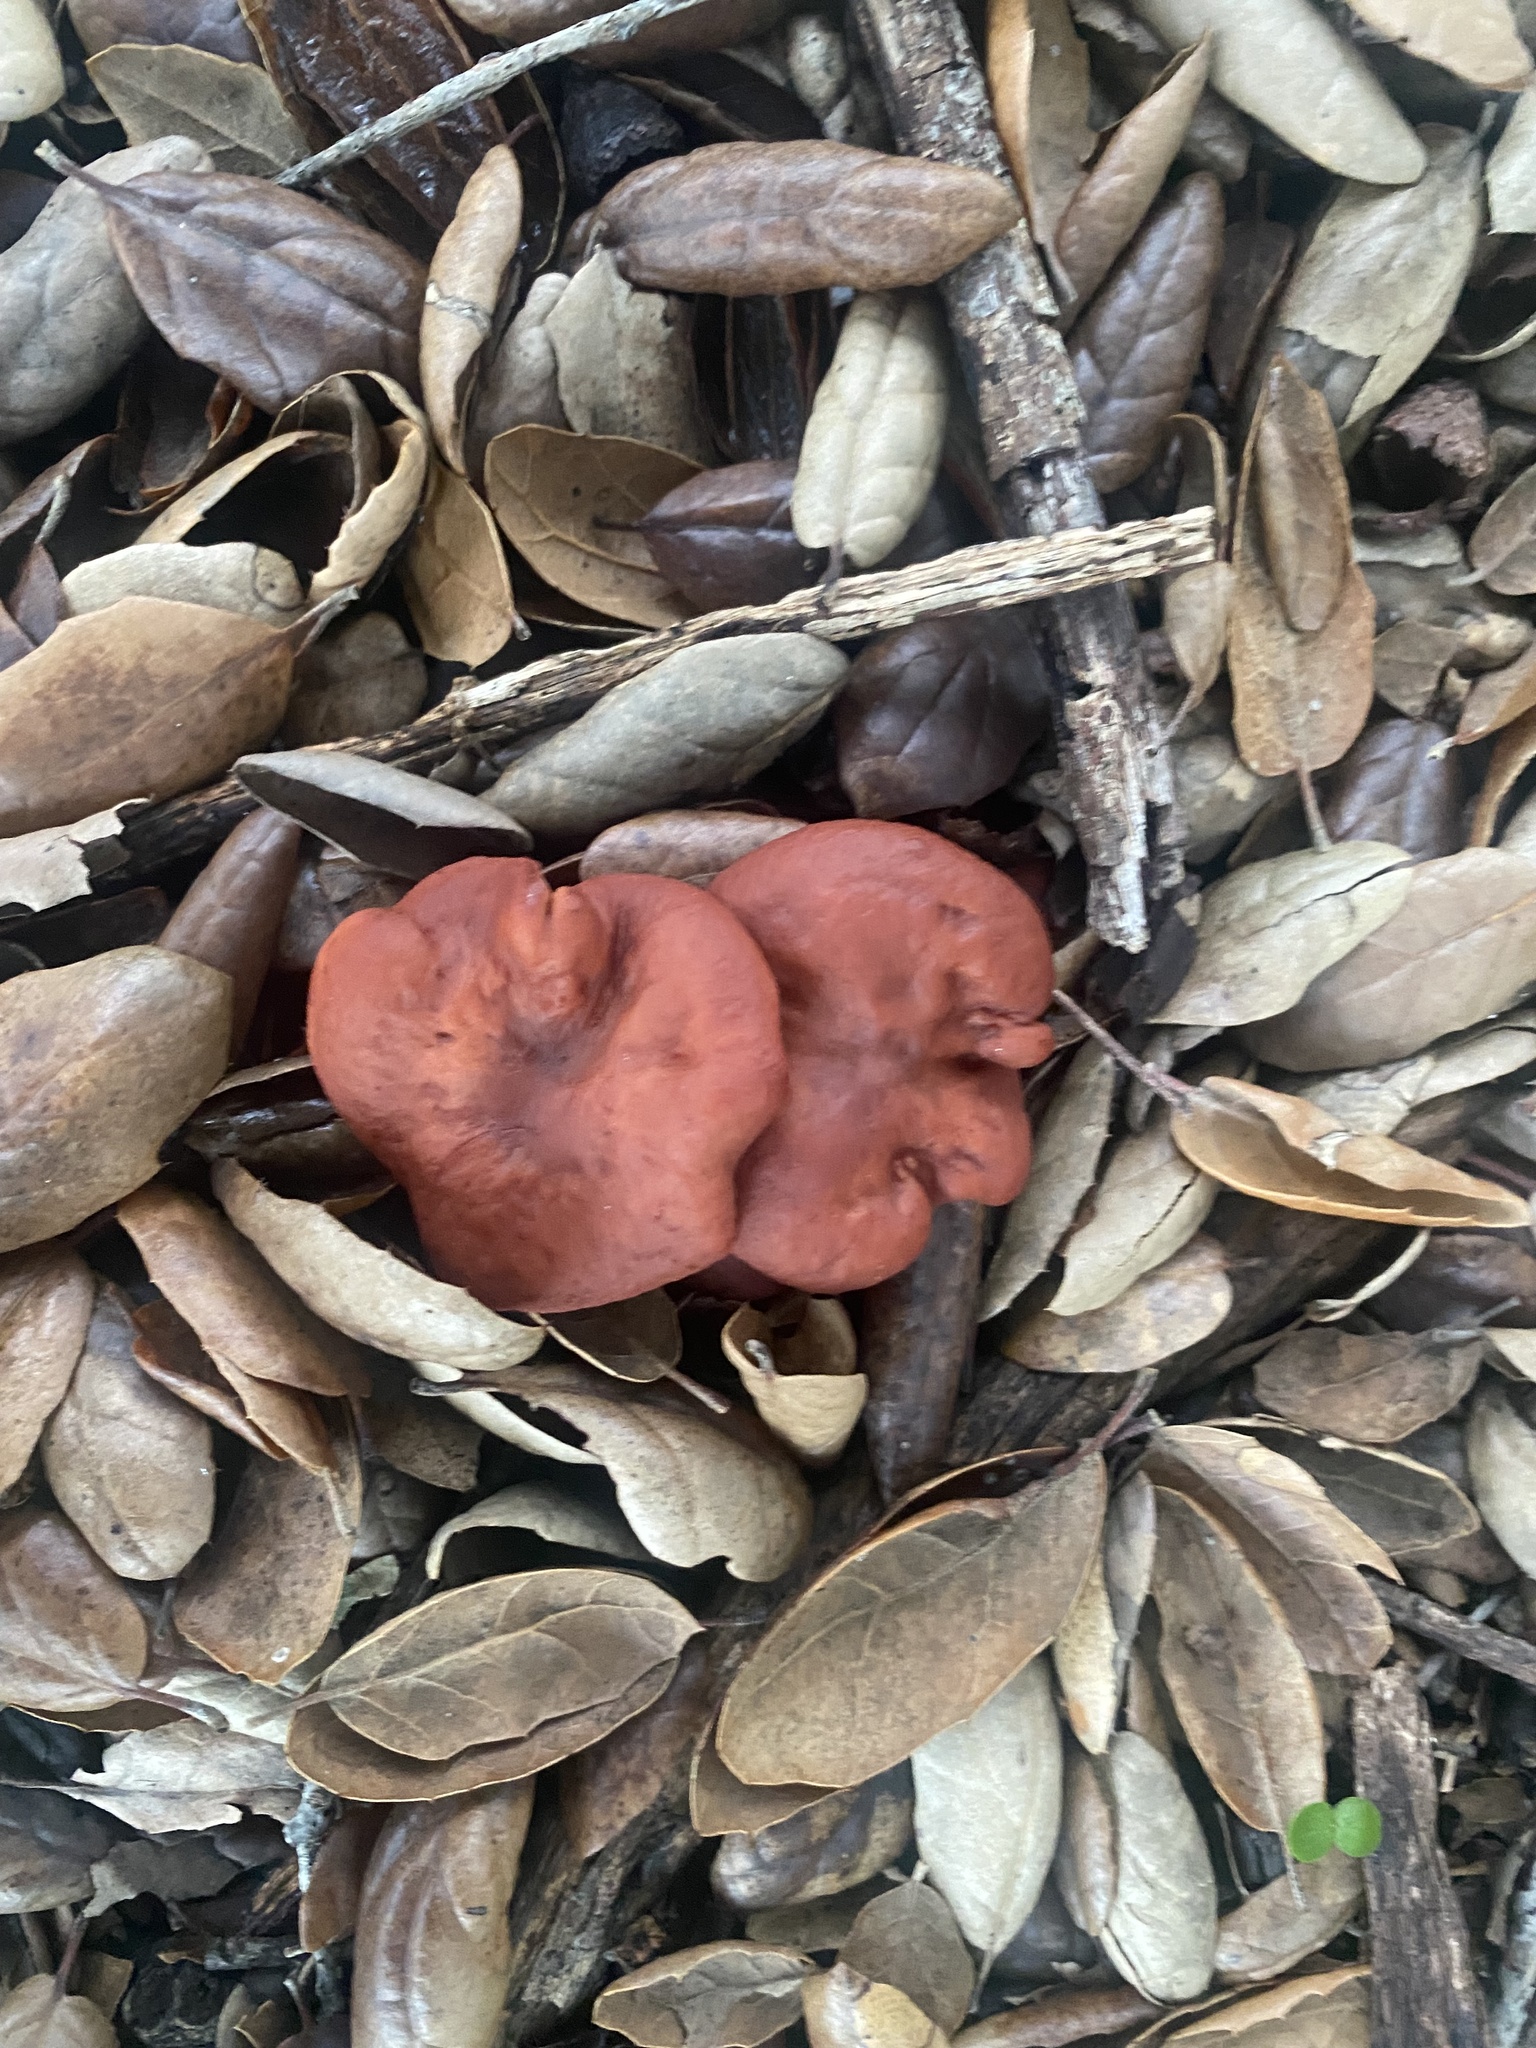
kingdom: Fungi
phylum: Basidiomycota
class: Agaricomycetes
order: Russulales
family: Russulaceae
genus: Lactarius
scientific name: Lactarius rufulus
